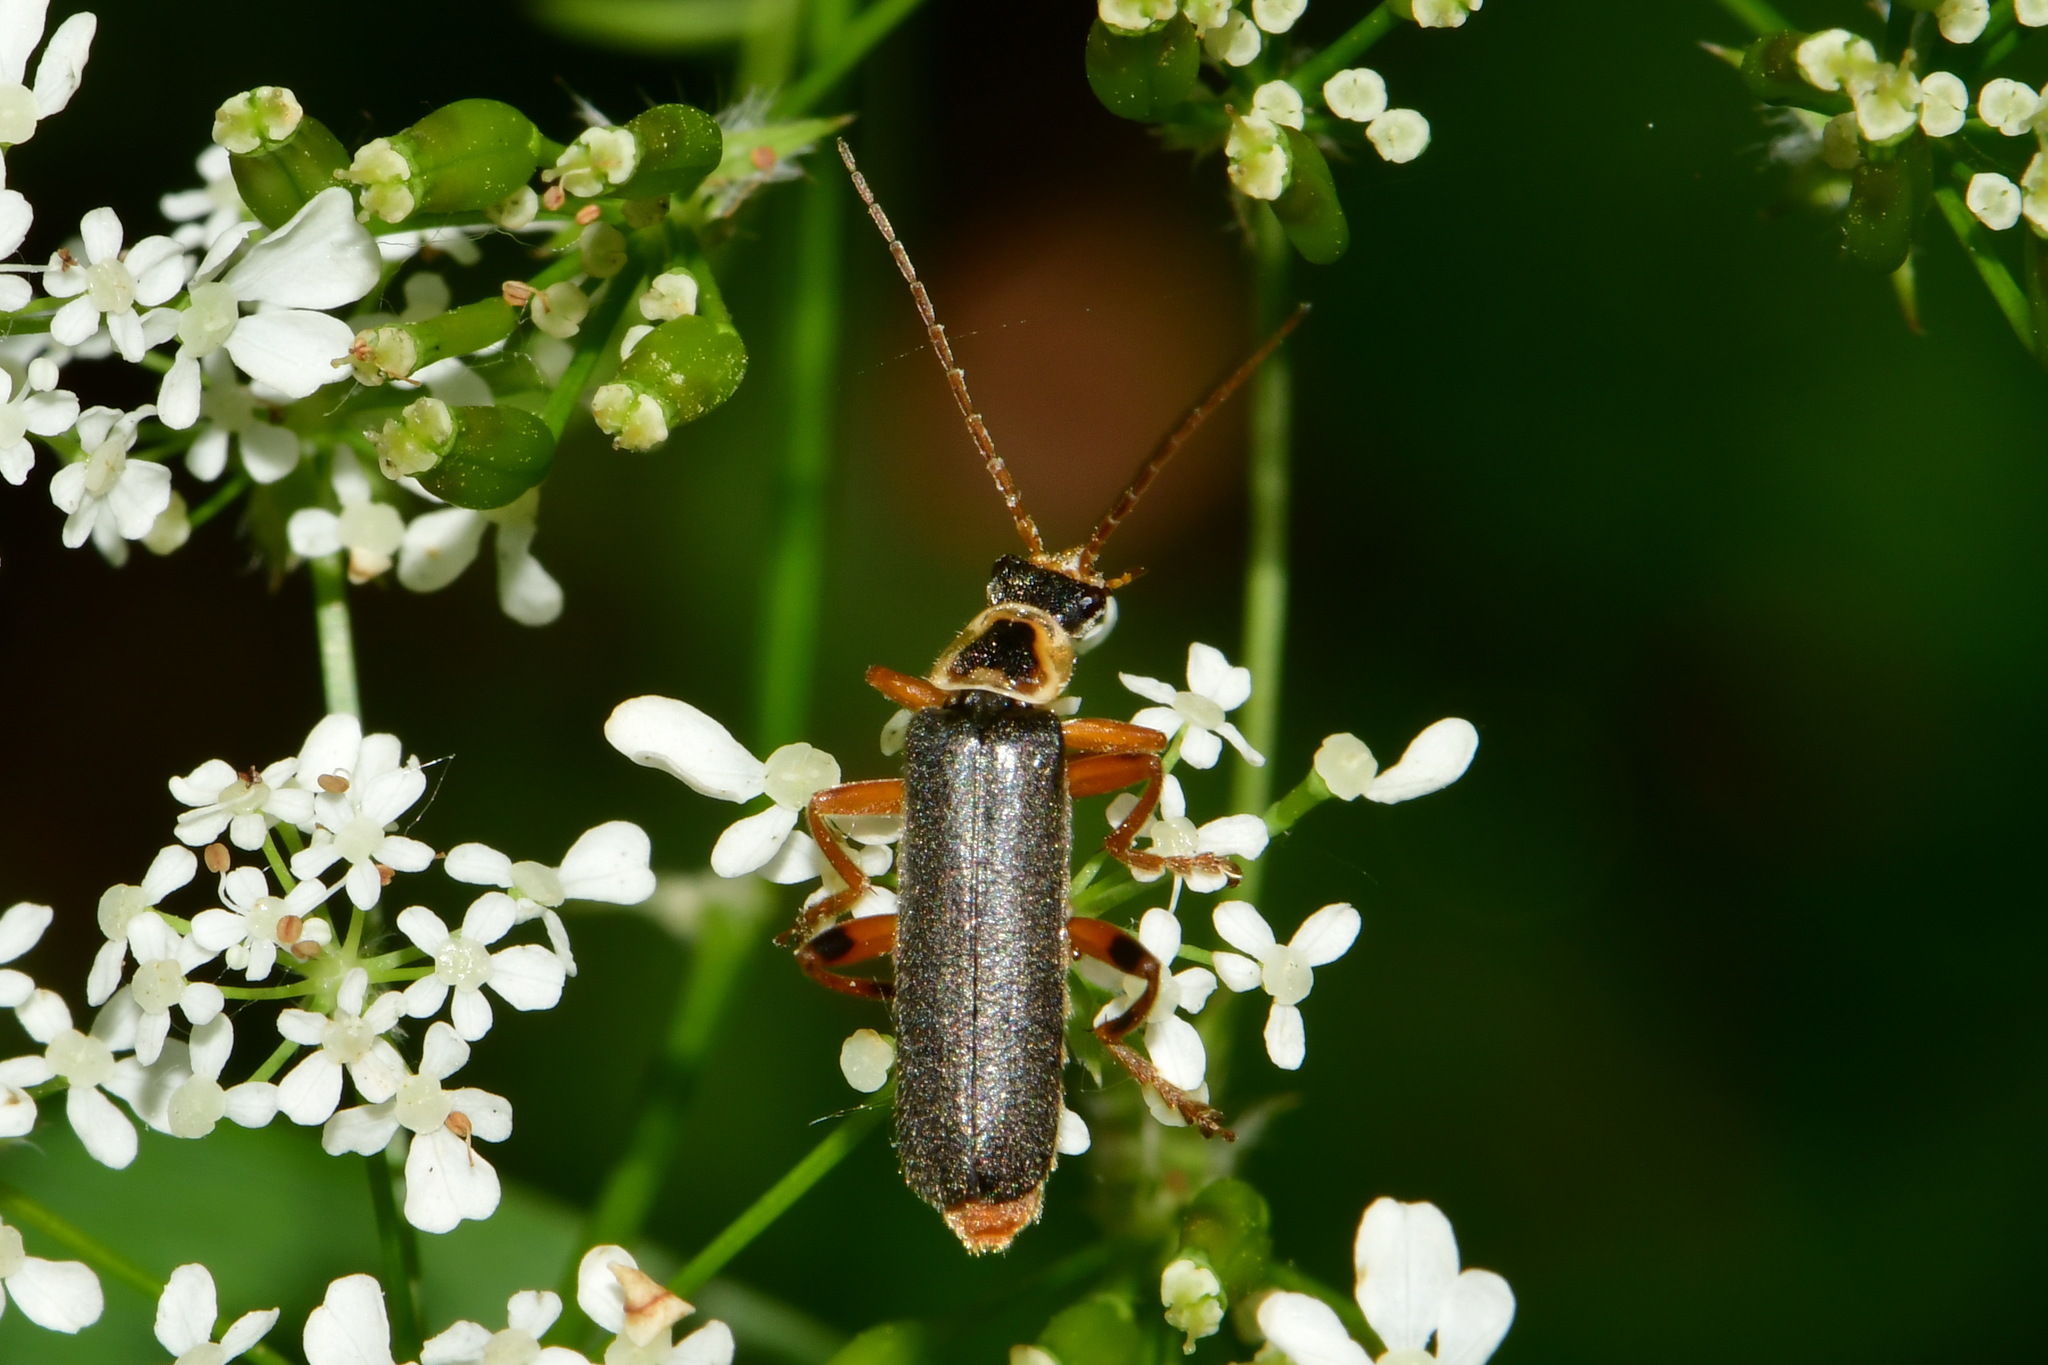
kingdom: Animalia
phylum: Arthropoda
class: Insecta
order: Coleoptera
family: Cantharidae
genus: Cantharis
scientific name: Cantharis nigricans
